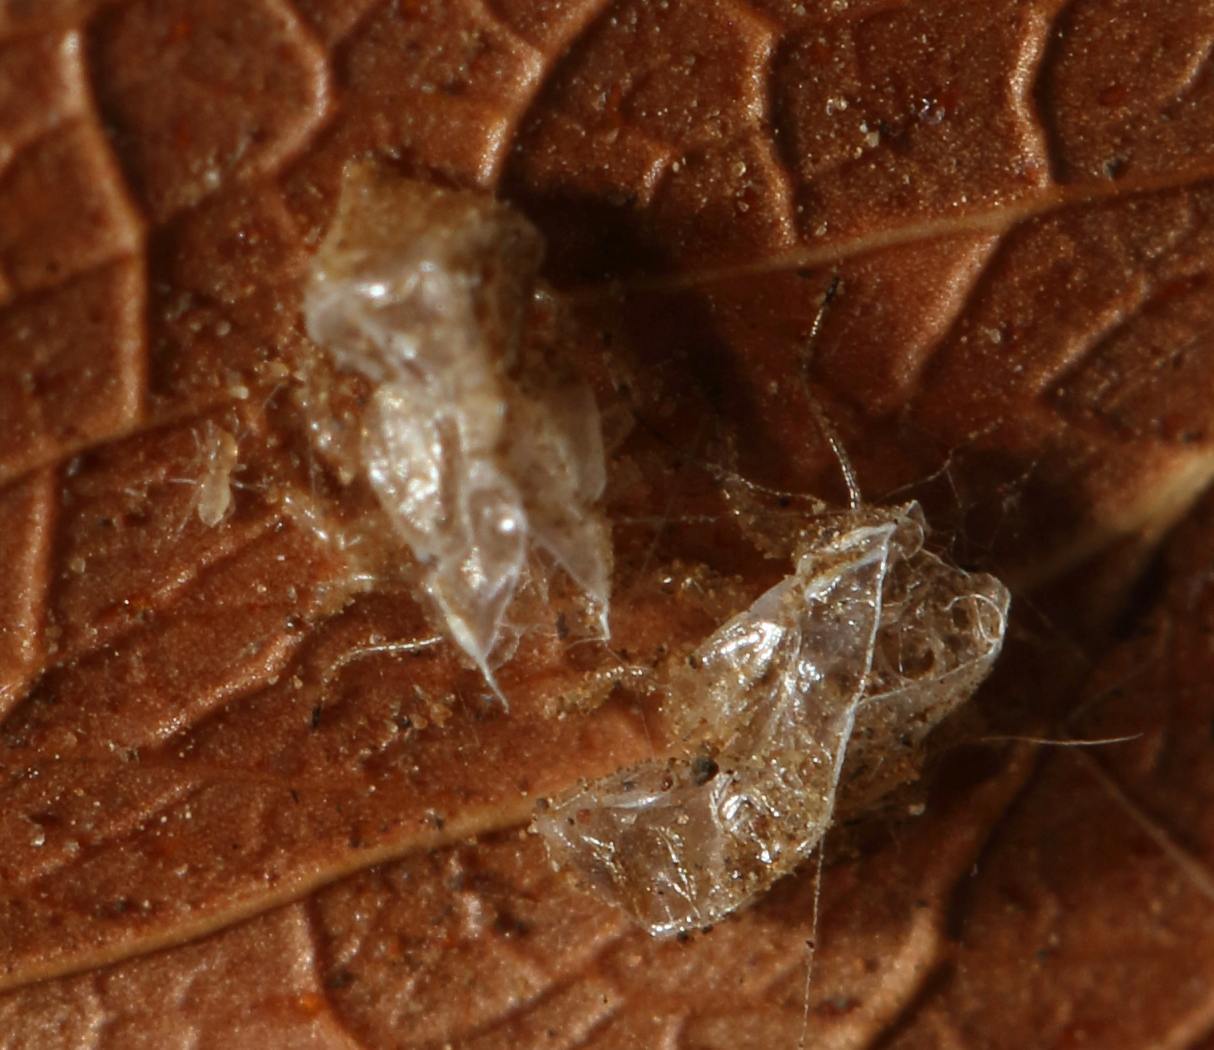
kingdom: Animalia
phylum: Arthropoda
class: Insecta
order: Hemiptera
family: Psyllidae
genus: Retroacizzia
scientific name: Retroacizzia mopani
